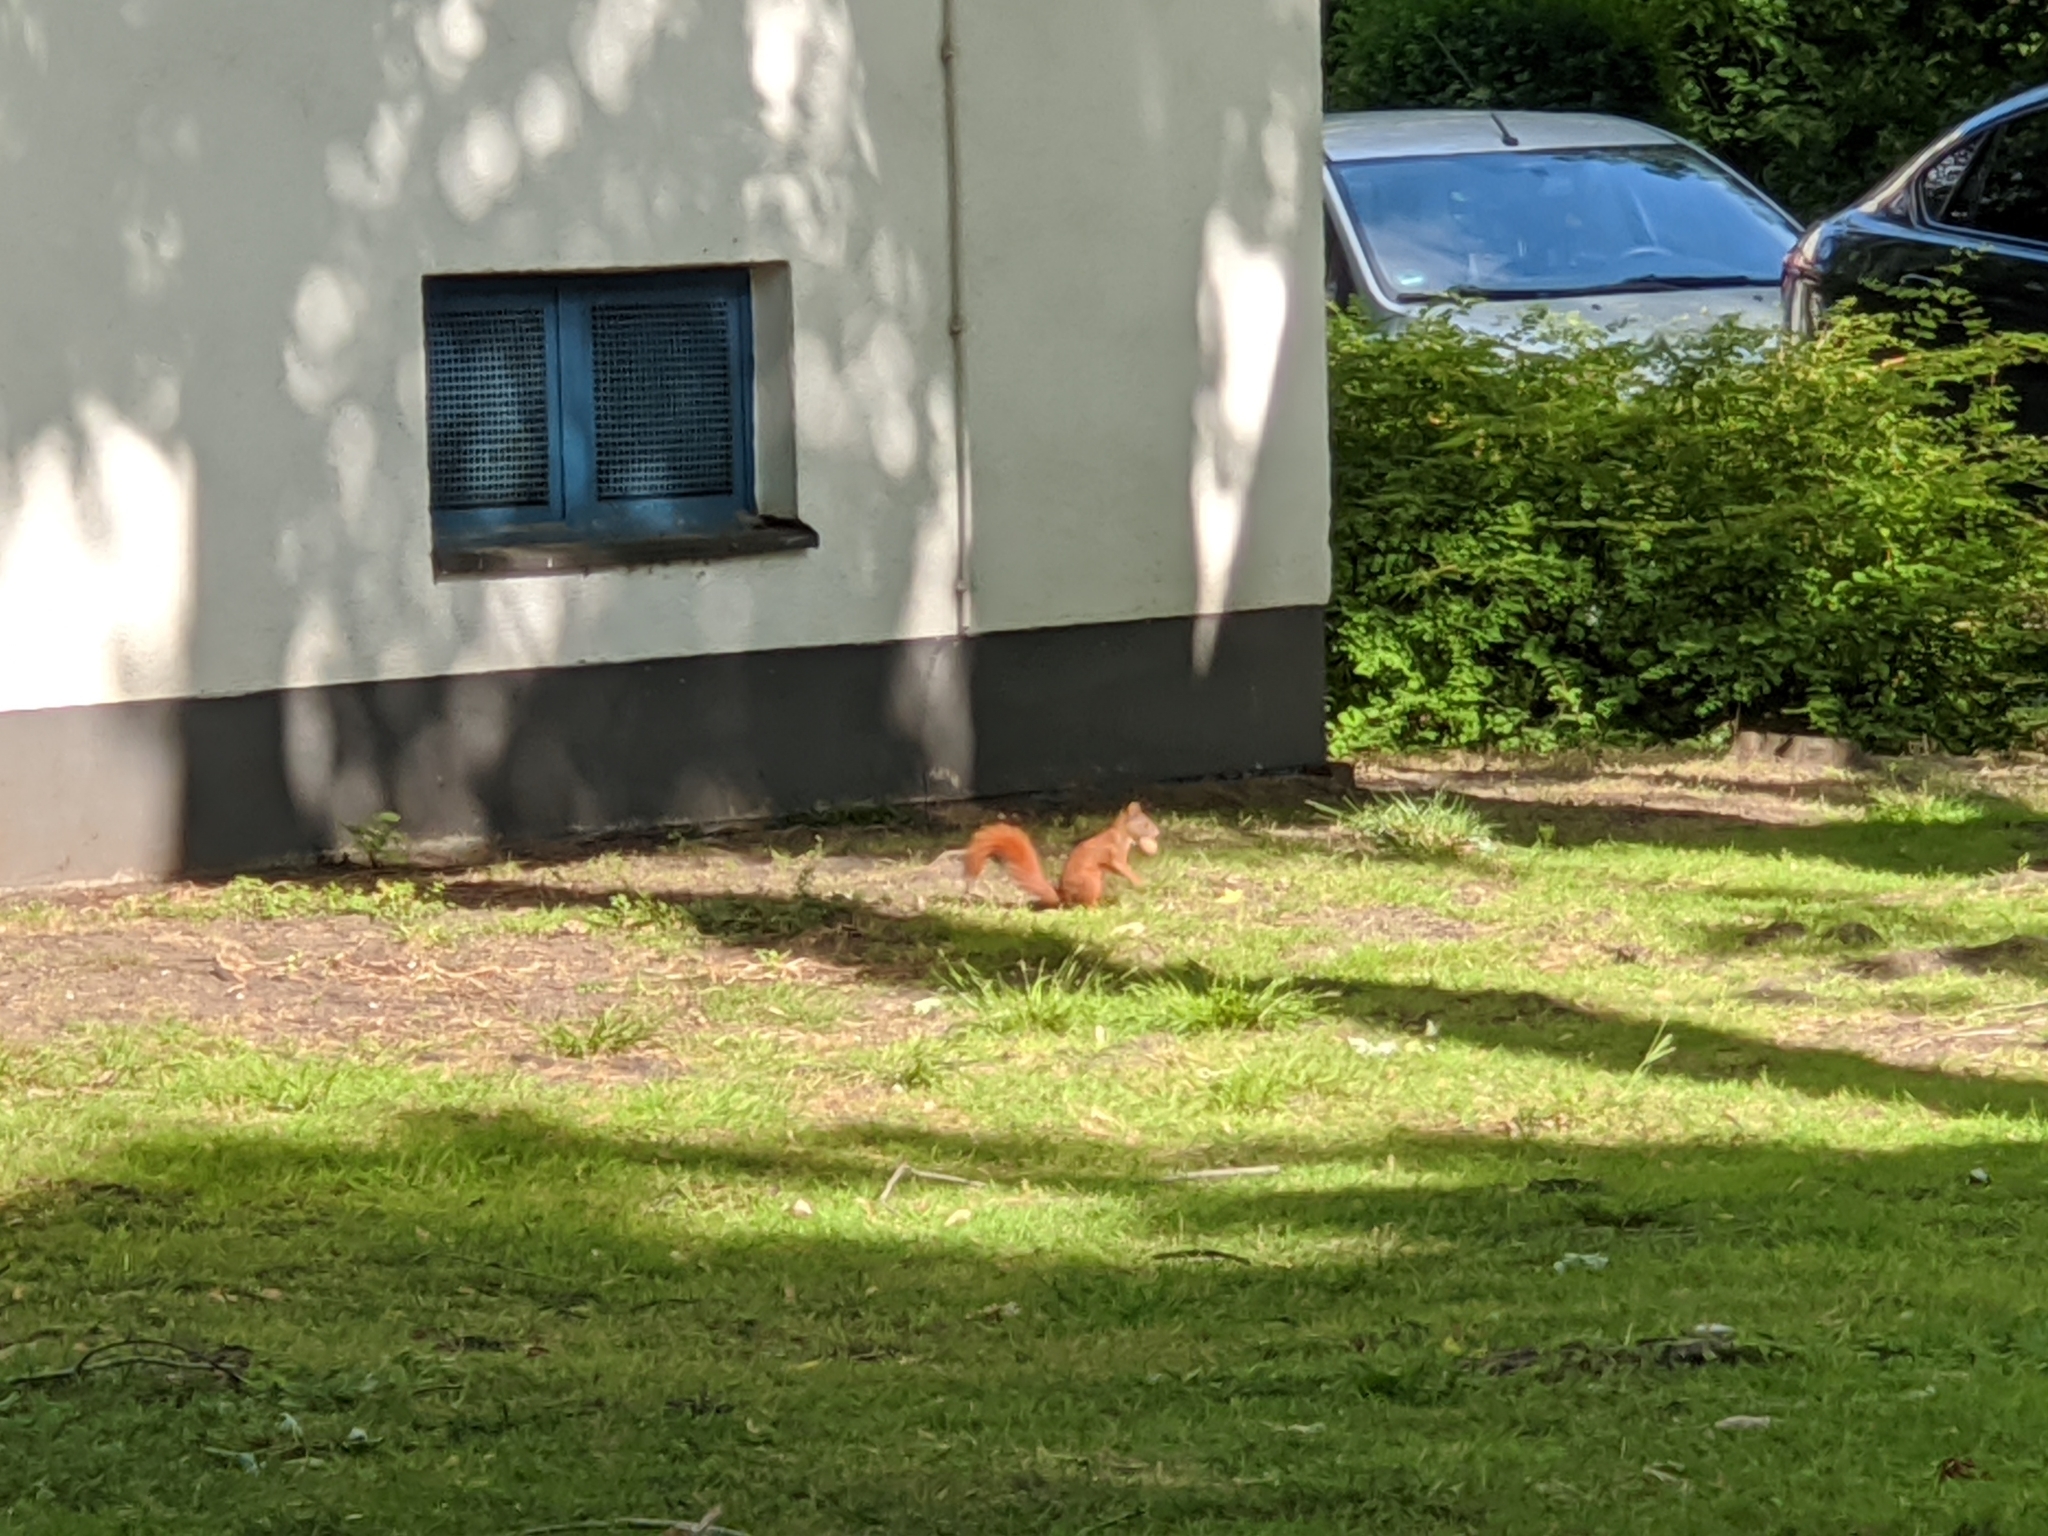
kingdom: Animalia
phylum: Chordata
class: Mammalia
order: Rodentia
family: Sciuridae
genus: Sciurus
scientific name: Sciurus vulgaris
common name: Eurasian red squirrel
